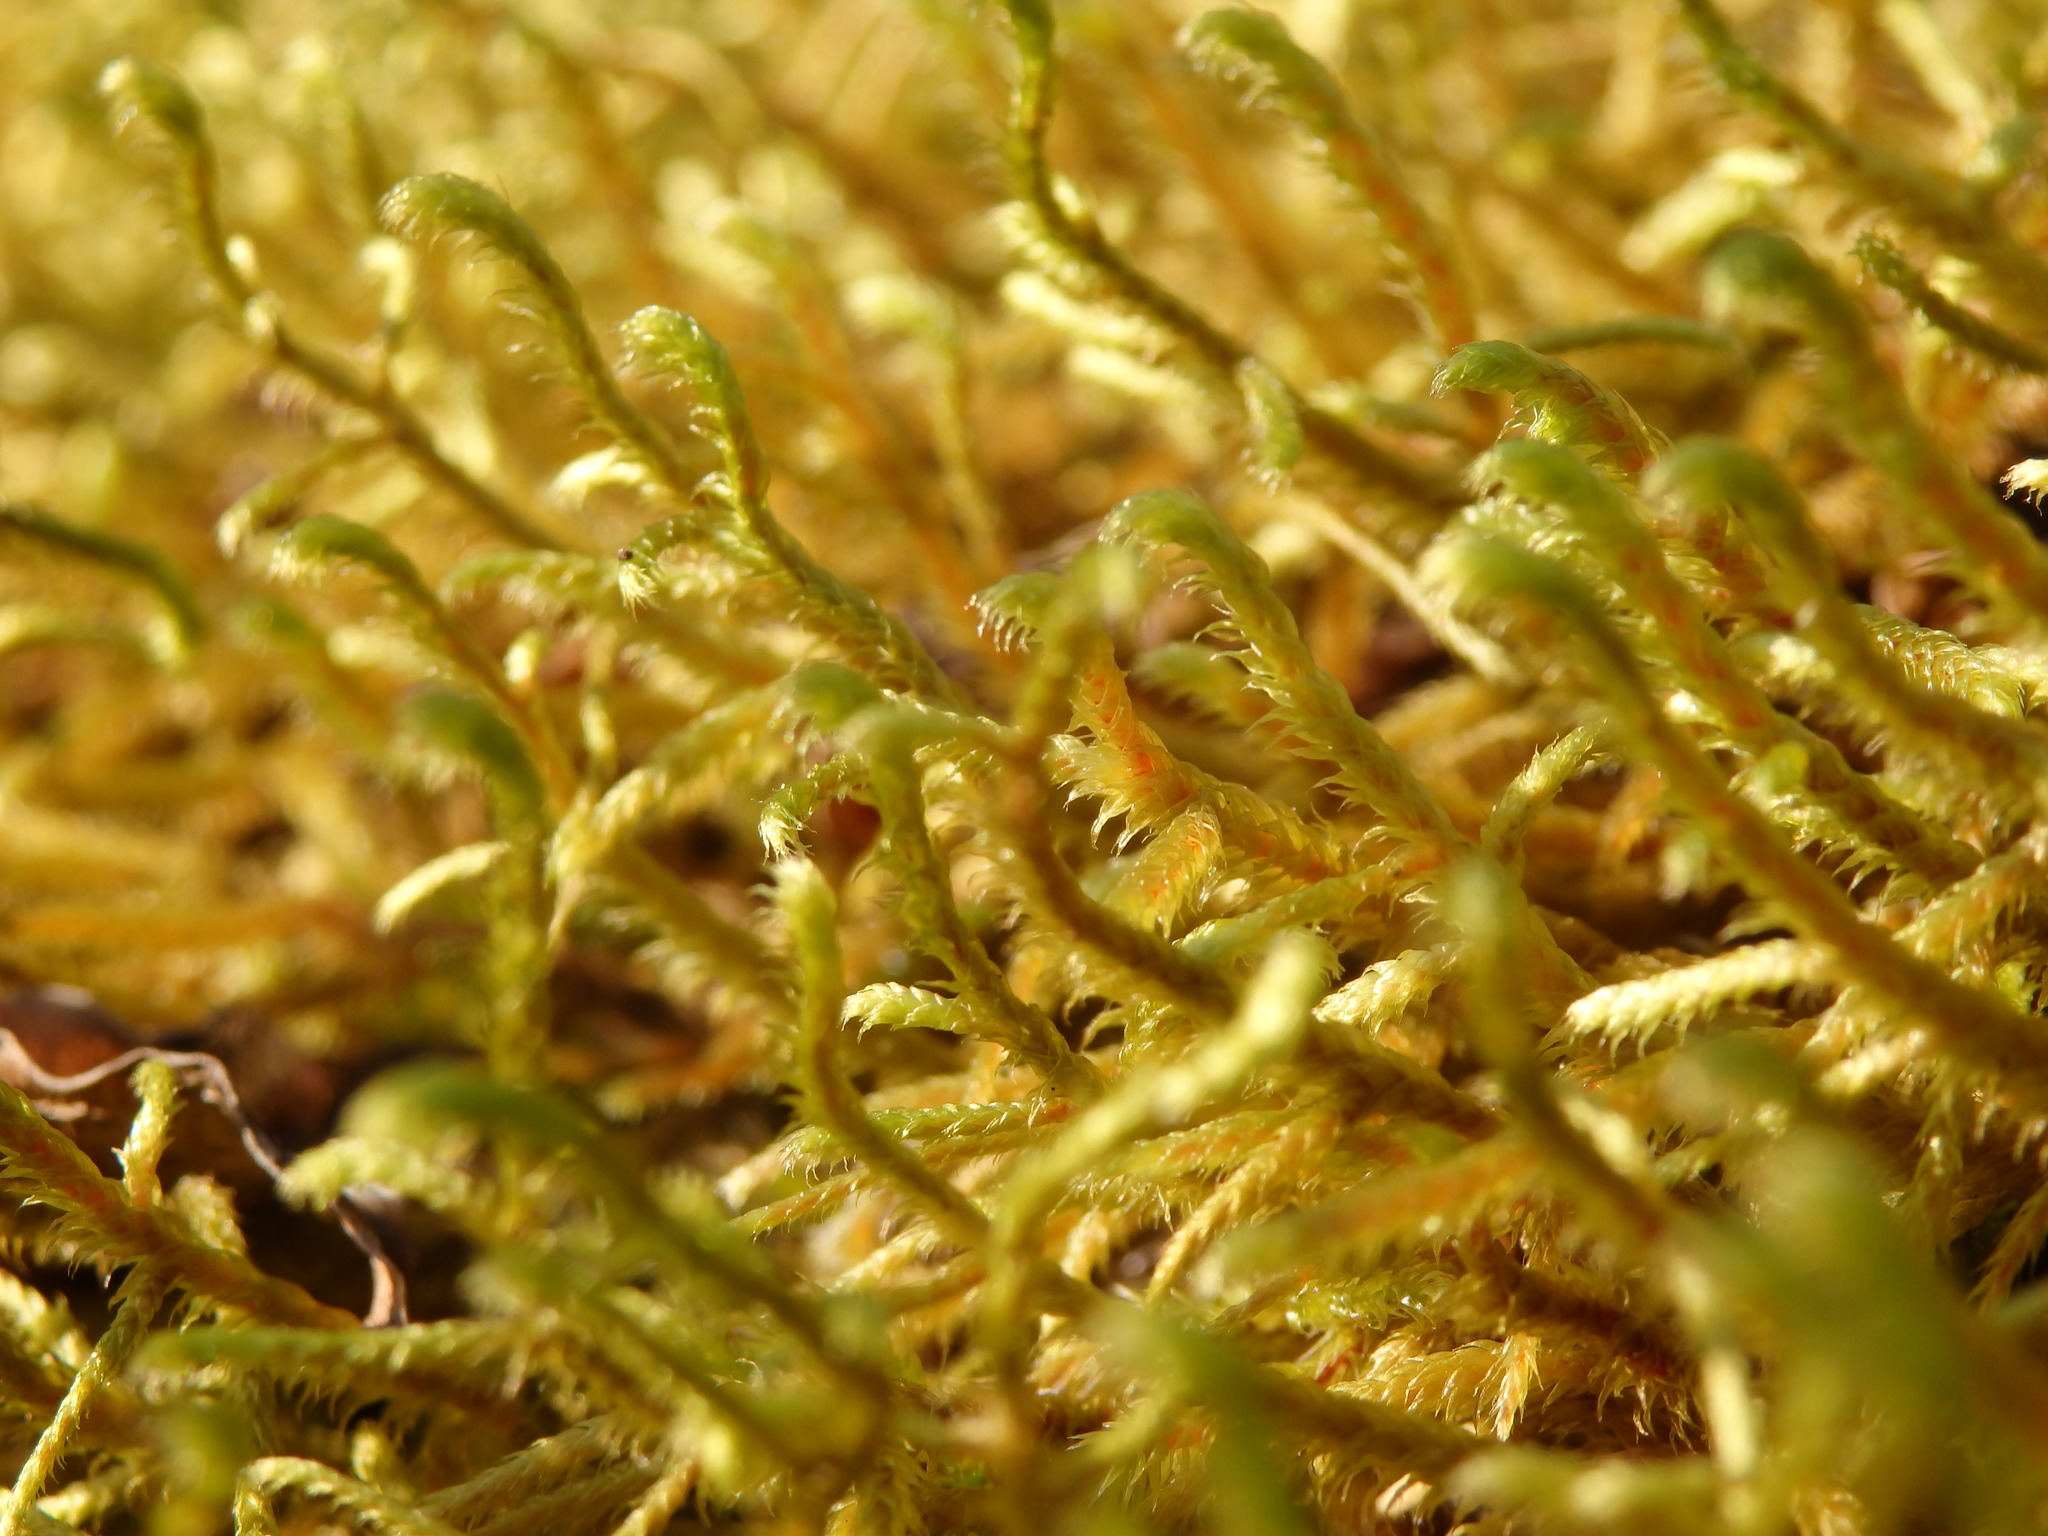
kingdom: Plantae
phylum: Bryophyta
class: Bryopsida
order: Hypnales
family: Antitrichiaceae
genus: Antitrichia
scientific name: Antitrichia curtipendula
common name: Pendulous wing-moss
